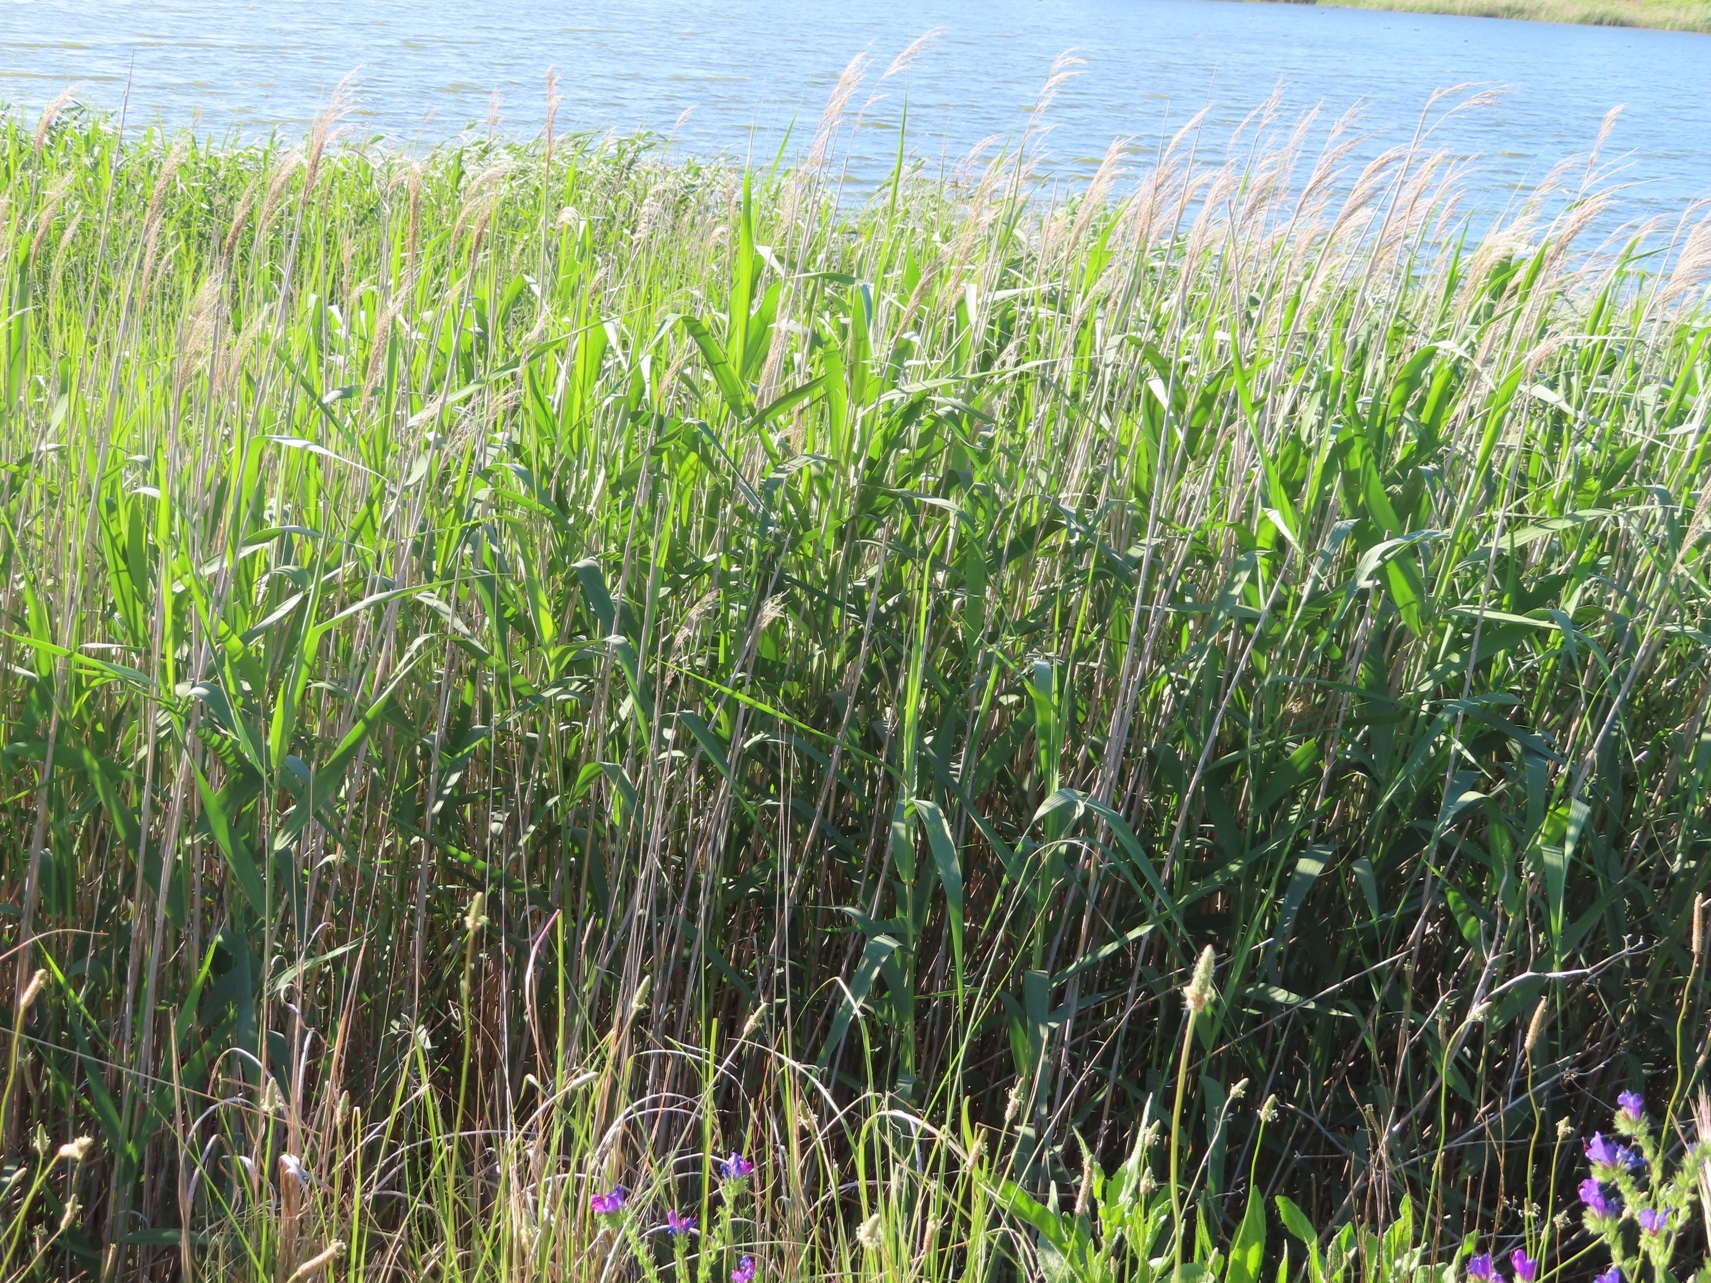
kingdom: Plantae
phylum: Tracheophyta
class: Liliopsida
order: Poales
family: Poaceae
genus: Phragmites
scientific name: Phragmites australis
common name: Common reed
